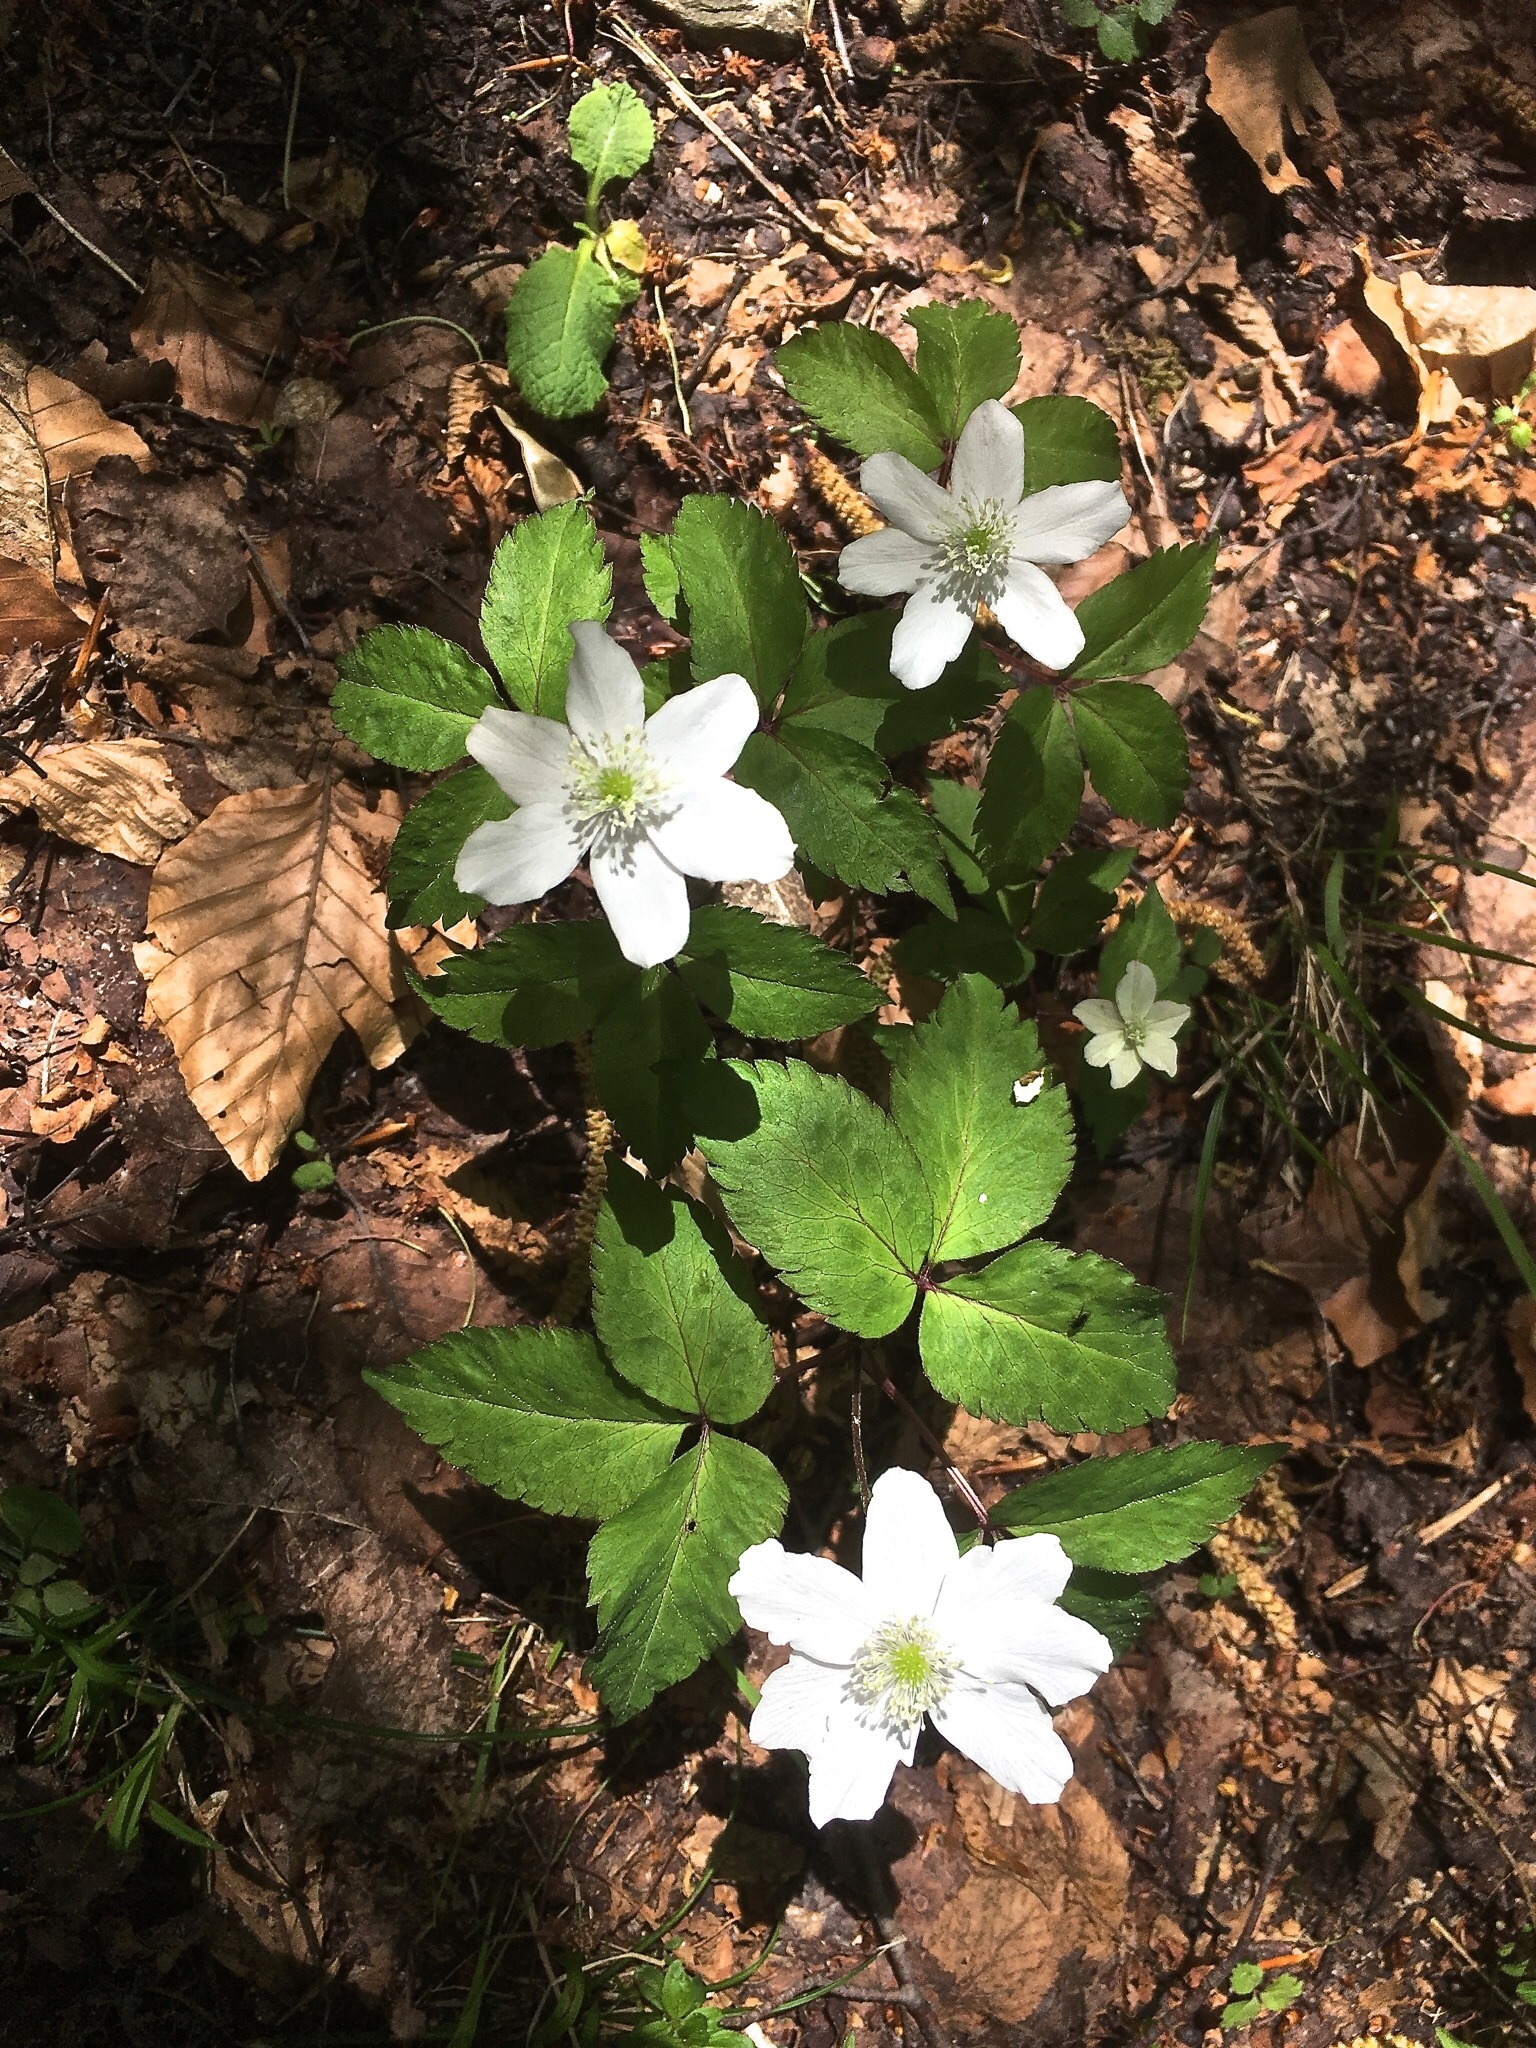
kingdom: Plantae
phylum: Tracheophyta
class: Magnoliopsida
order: Ranunculales
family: Ranunculaceae
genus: Anemone
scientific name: Anemone trifolia
